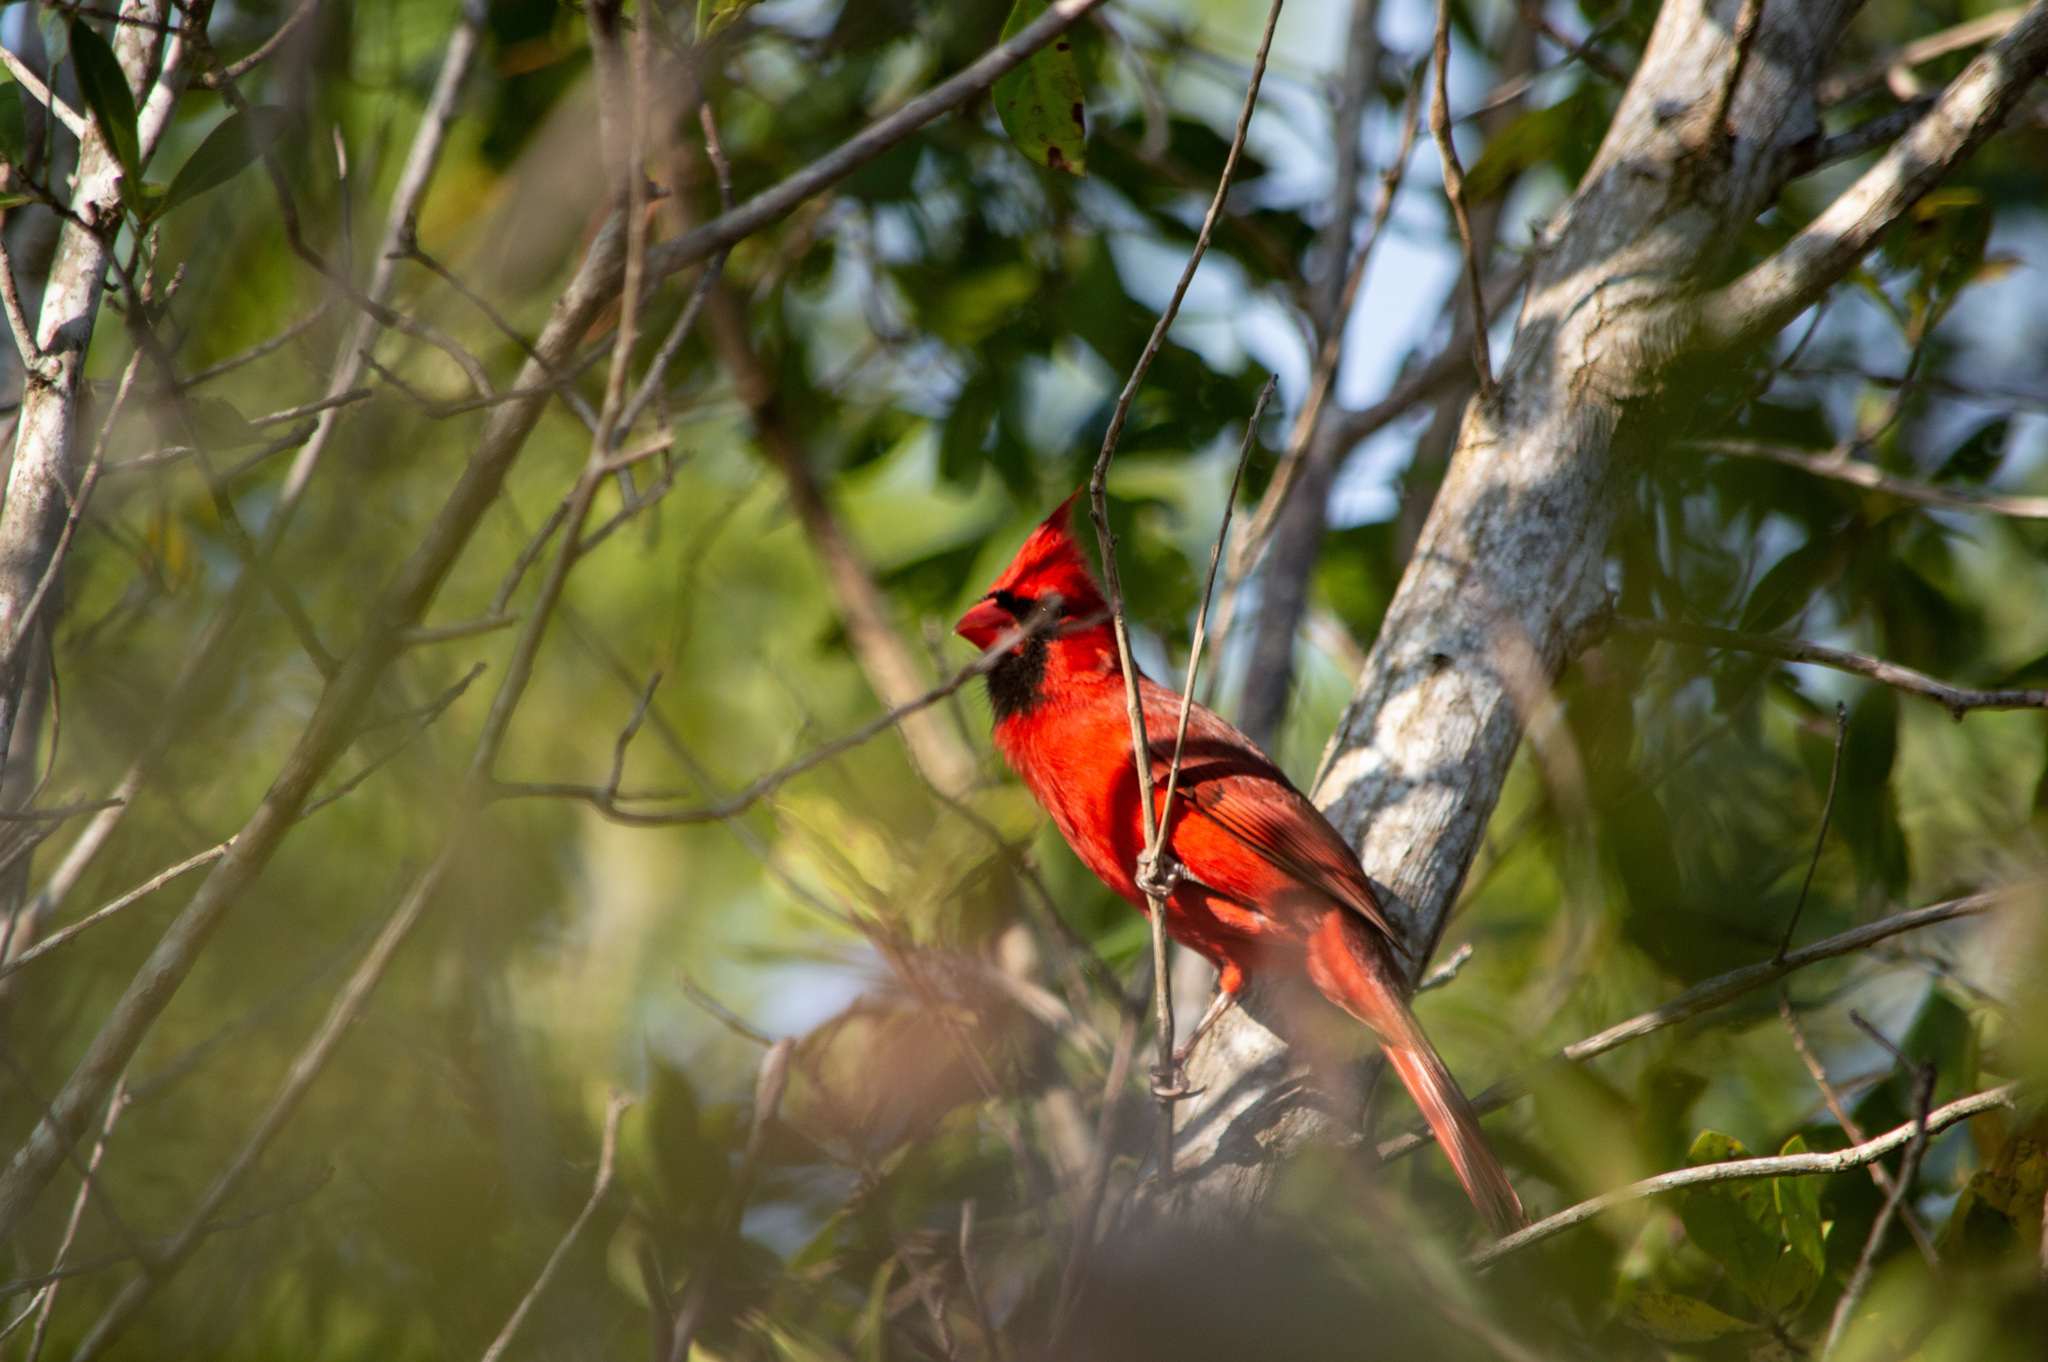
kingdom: Animalia
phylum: Chordata
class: Aves
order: Passeriformes
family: Cardinalidae
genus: Cardinalis
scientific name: Cardinalis cardinalis
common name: Northern cardinal
